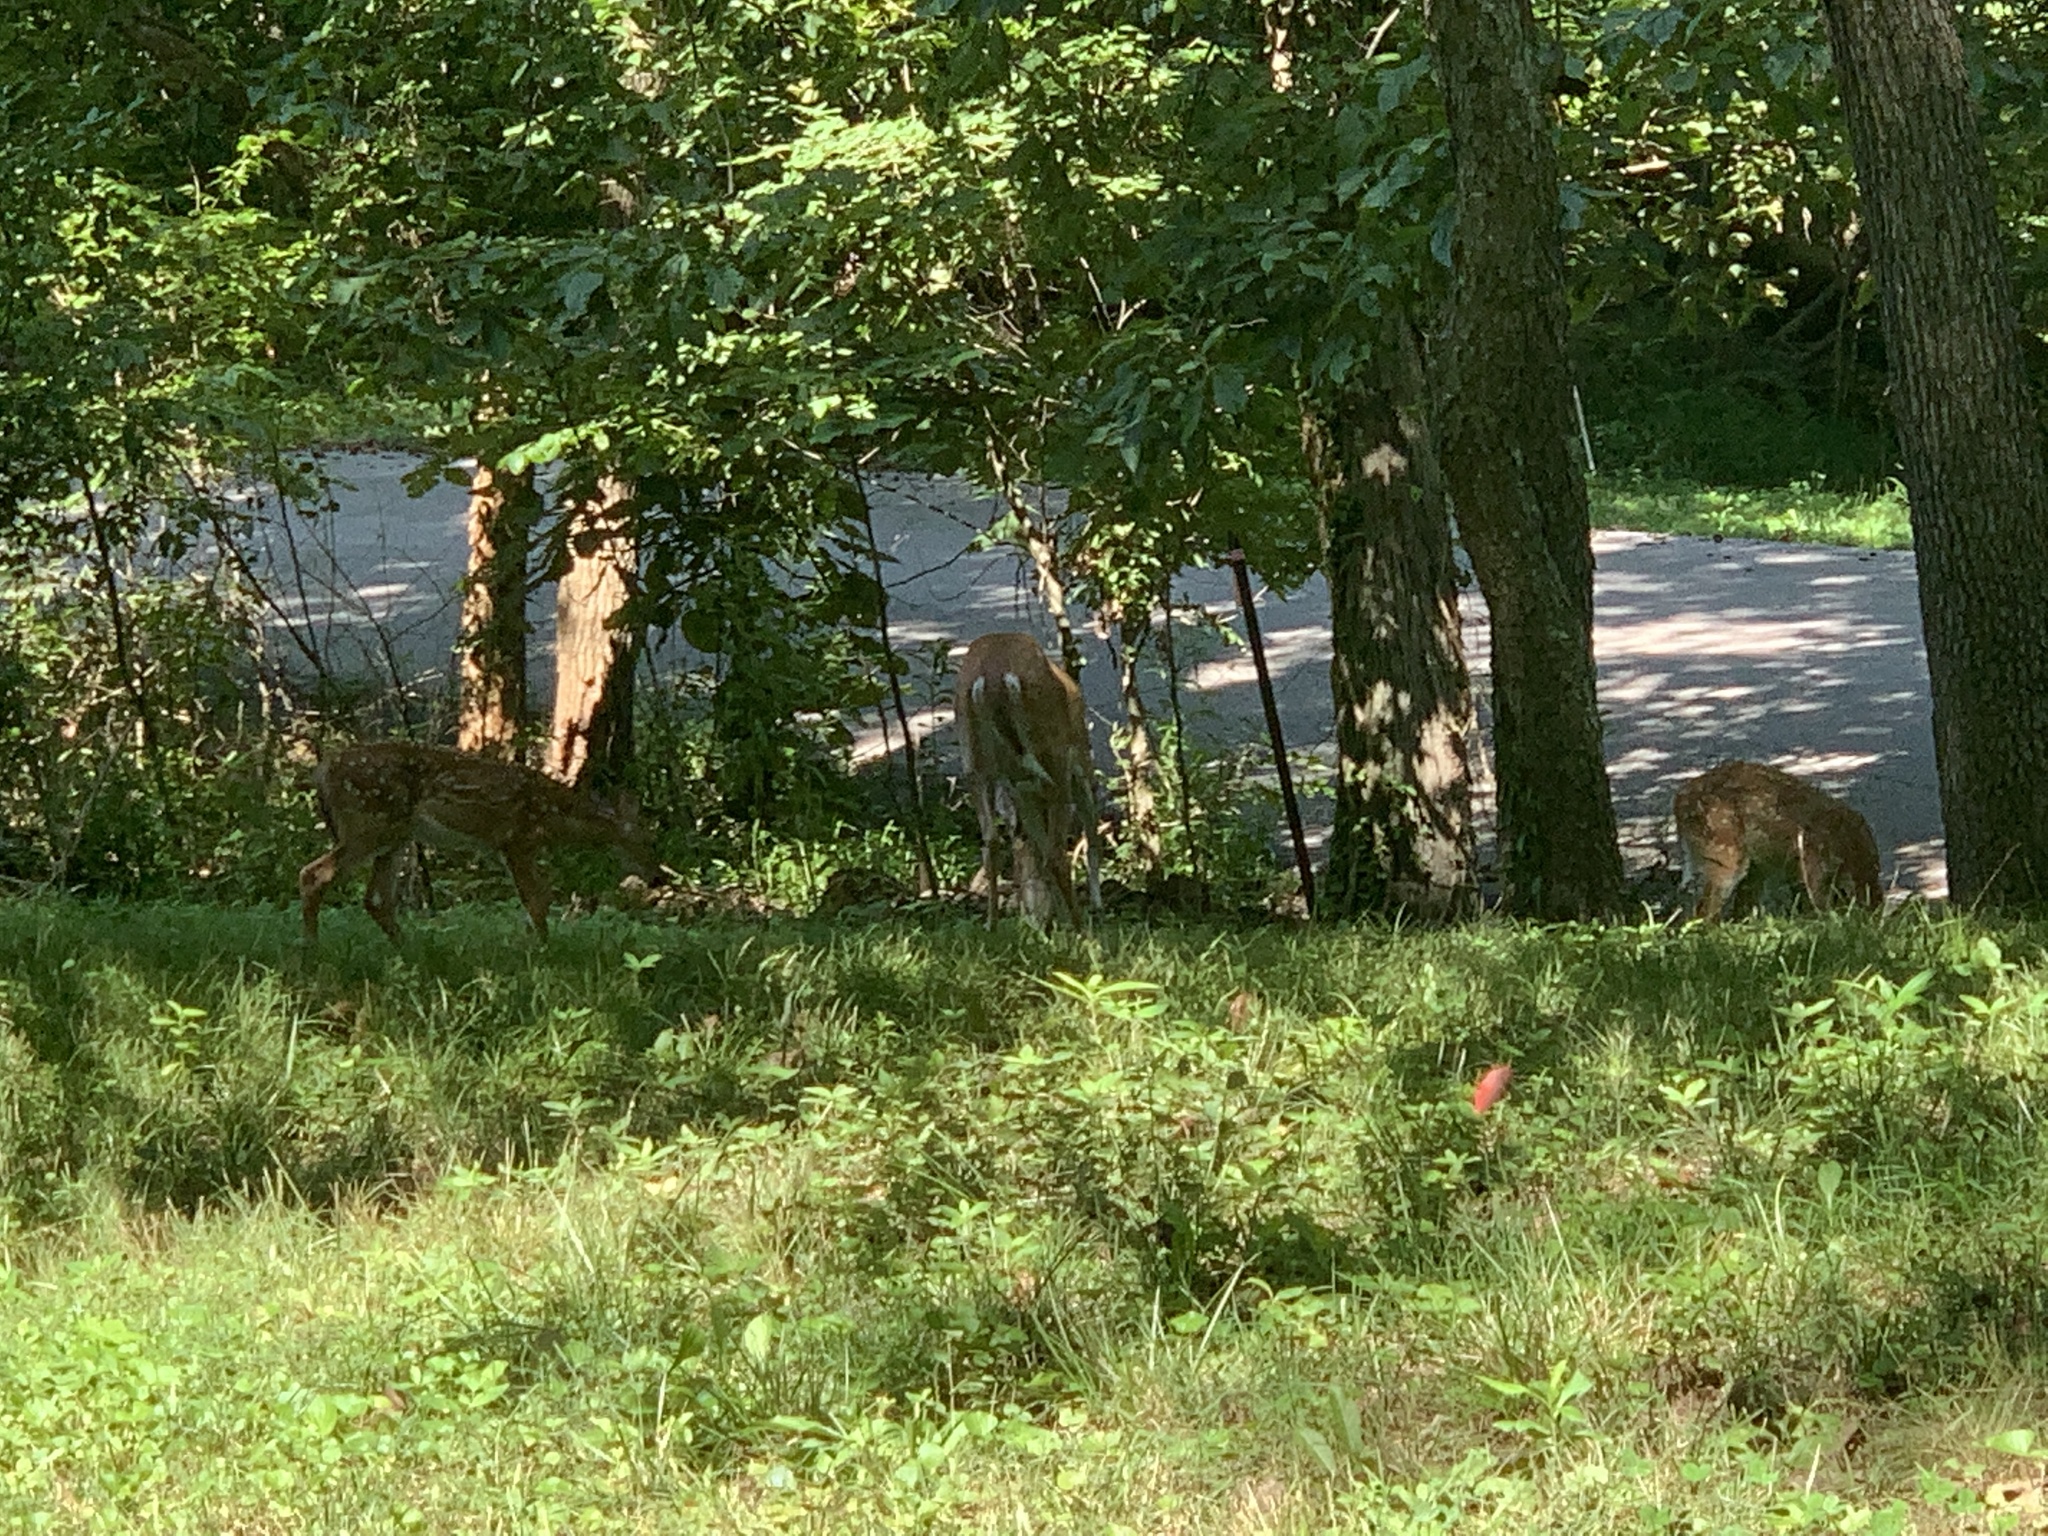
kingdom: Animalia
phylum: Chordata
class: Mammalia
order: Artiodactyla
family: Cervidae
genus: Odocoileus
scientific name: Odocoileus virginianus
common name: White-tailed deer
